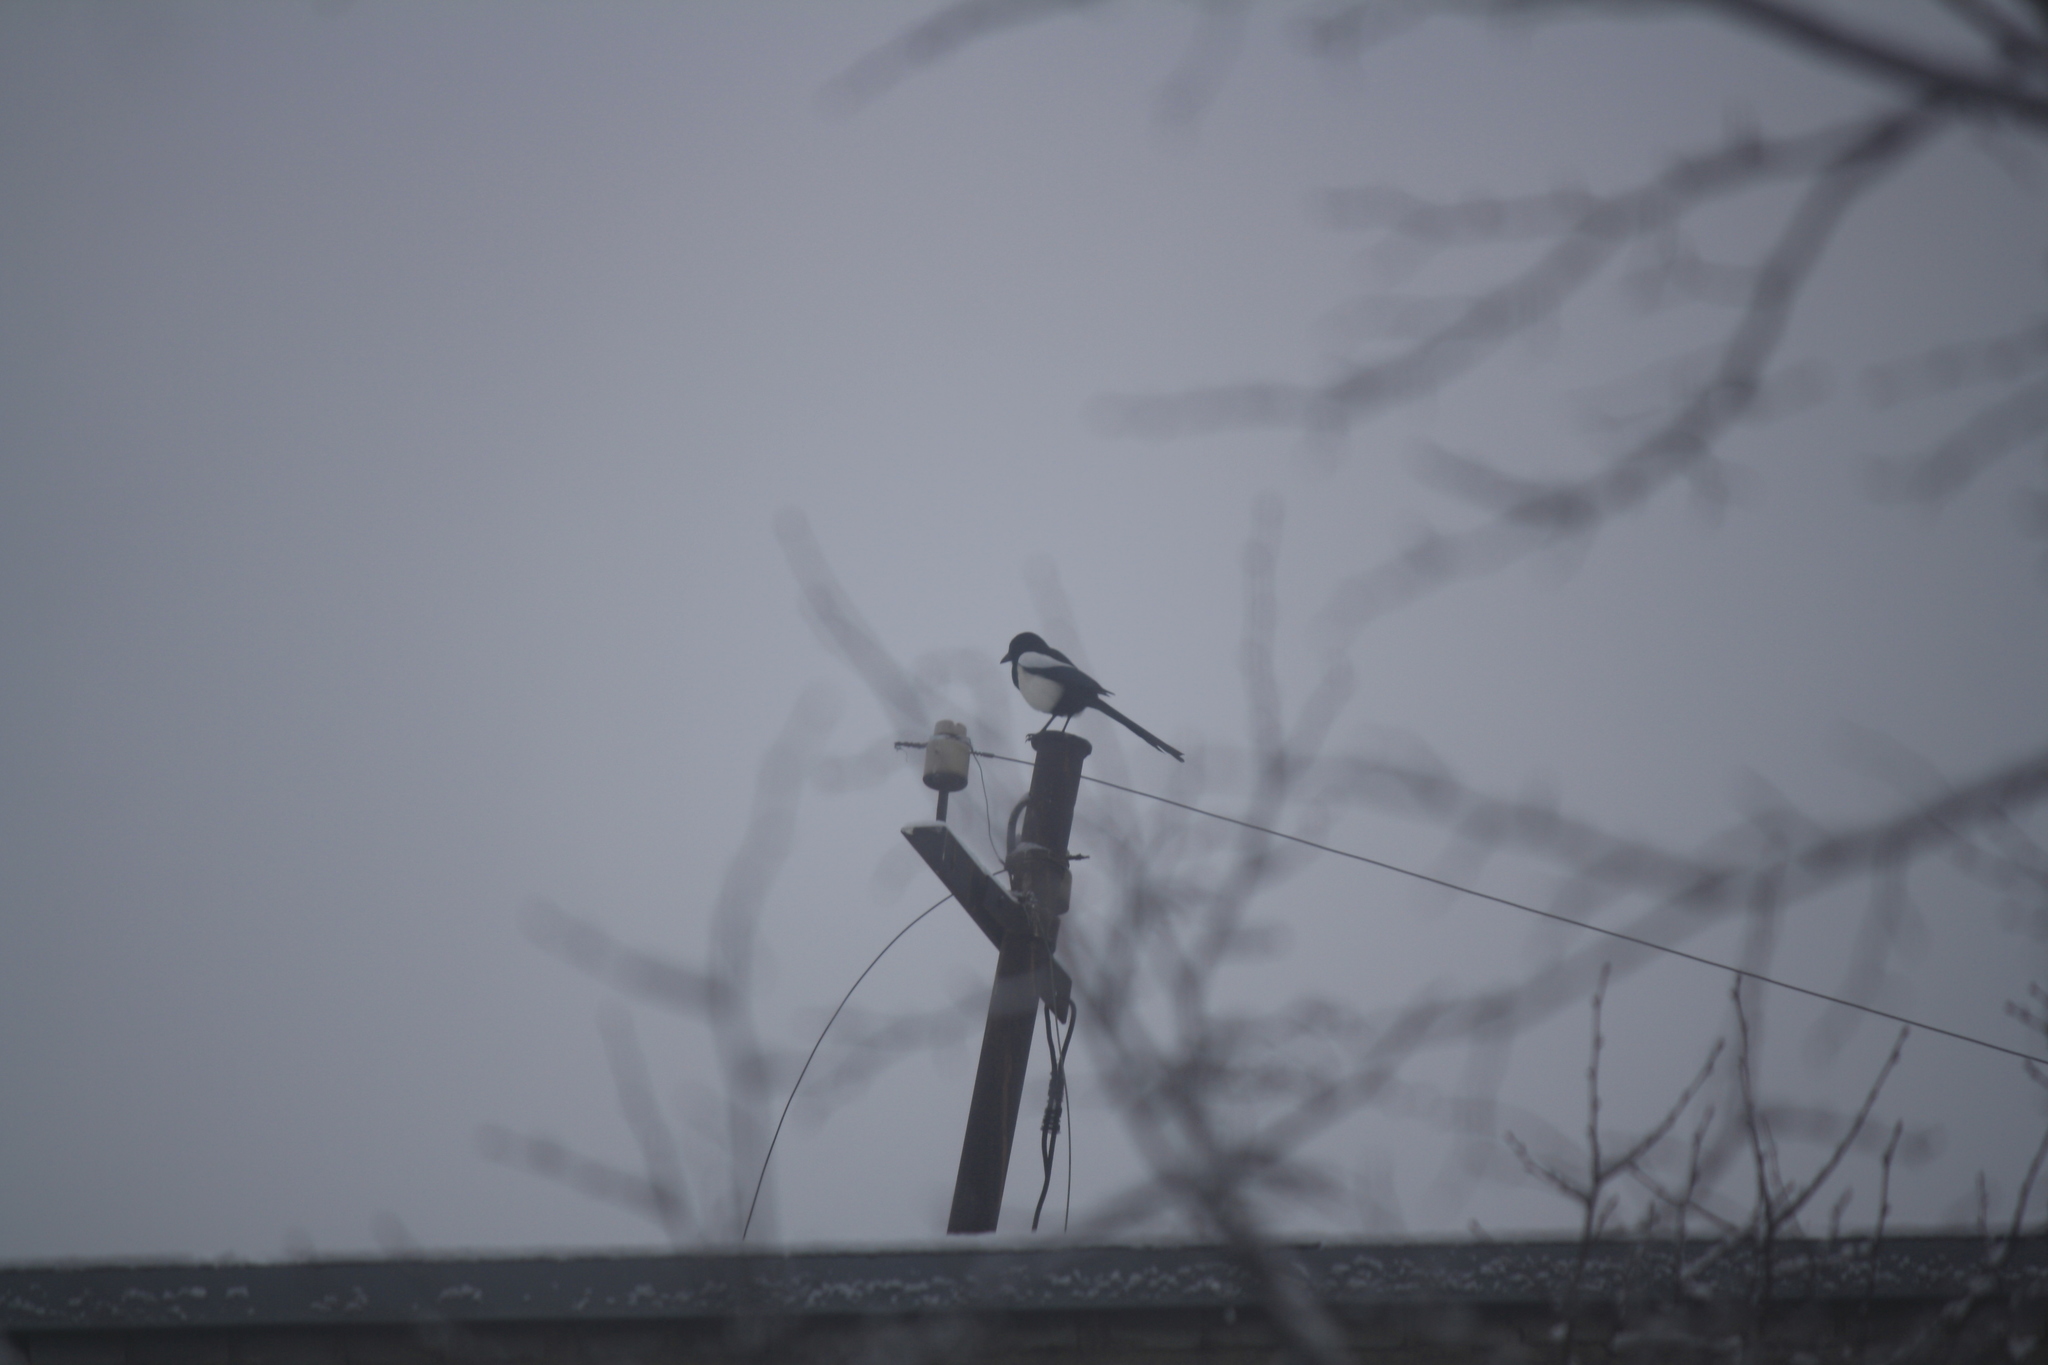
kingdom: Animalia
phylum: Chordata
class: Aves
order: Passeriformes
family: Corvidae
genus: Pica
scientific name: Pica pica
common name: Eurasian magpie
